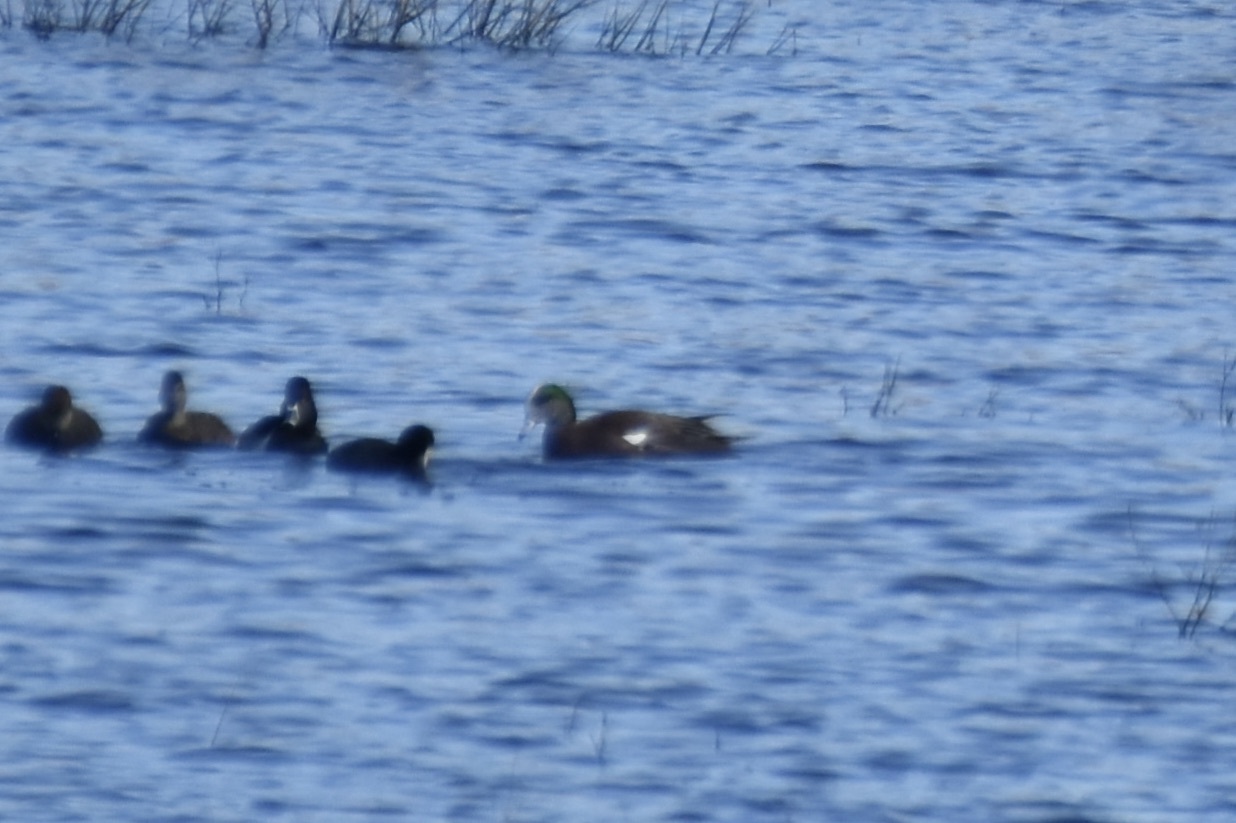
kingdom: Animalia
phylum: Chordata
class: Aves
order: Anseriformes
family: Anatidae
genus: Mareca
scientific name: Mareca americana
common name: American wigeon
